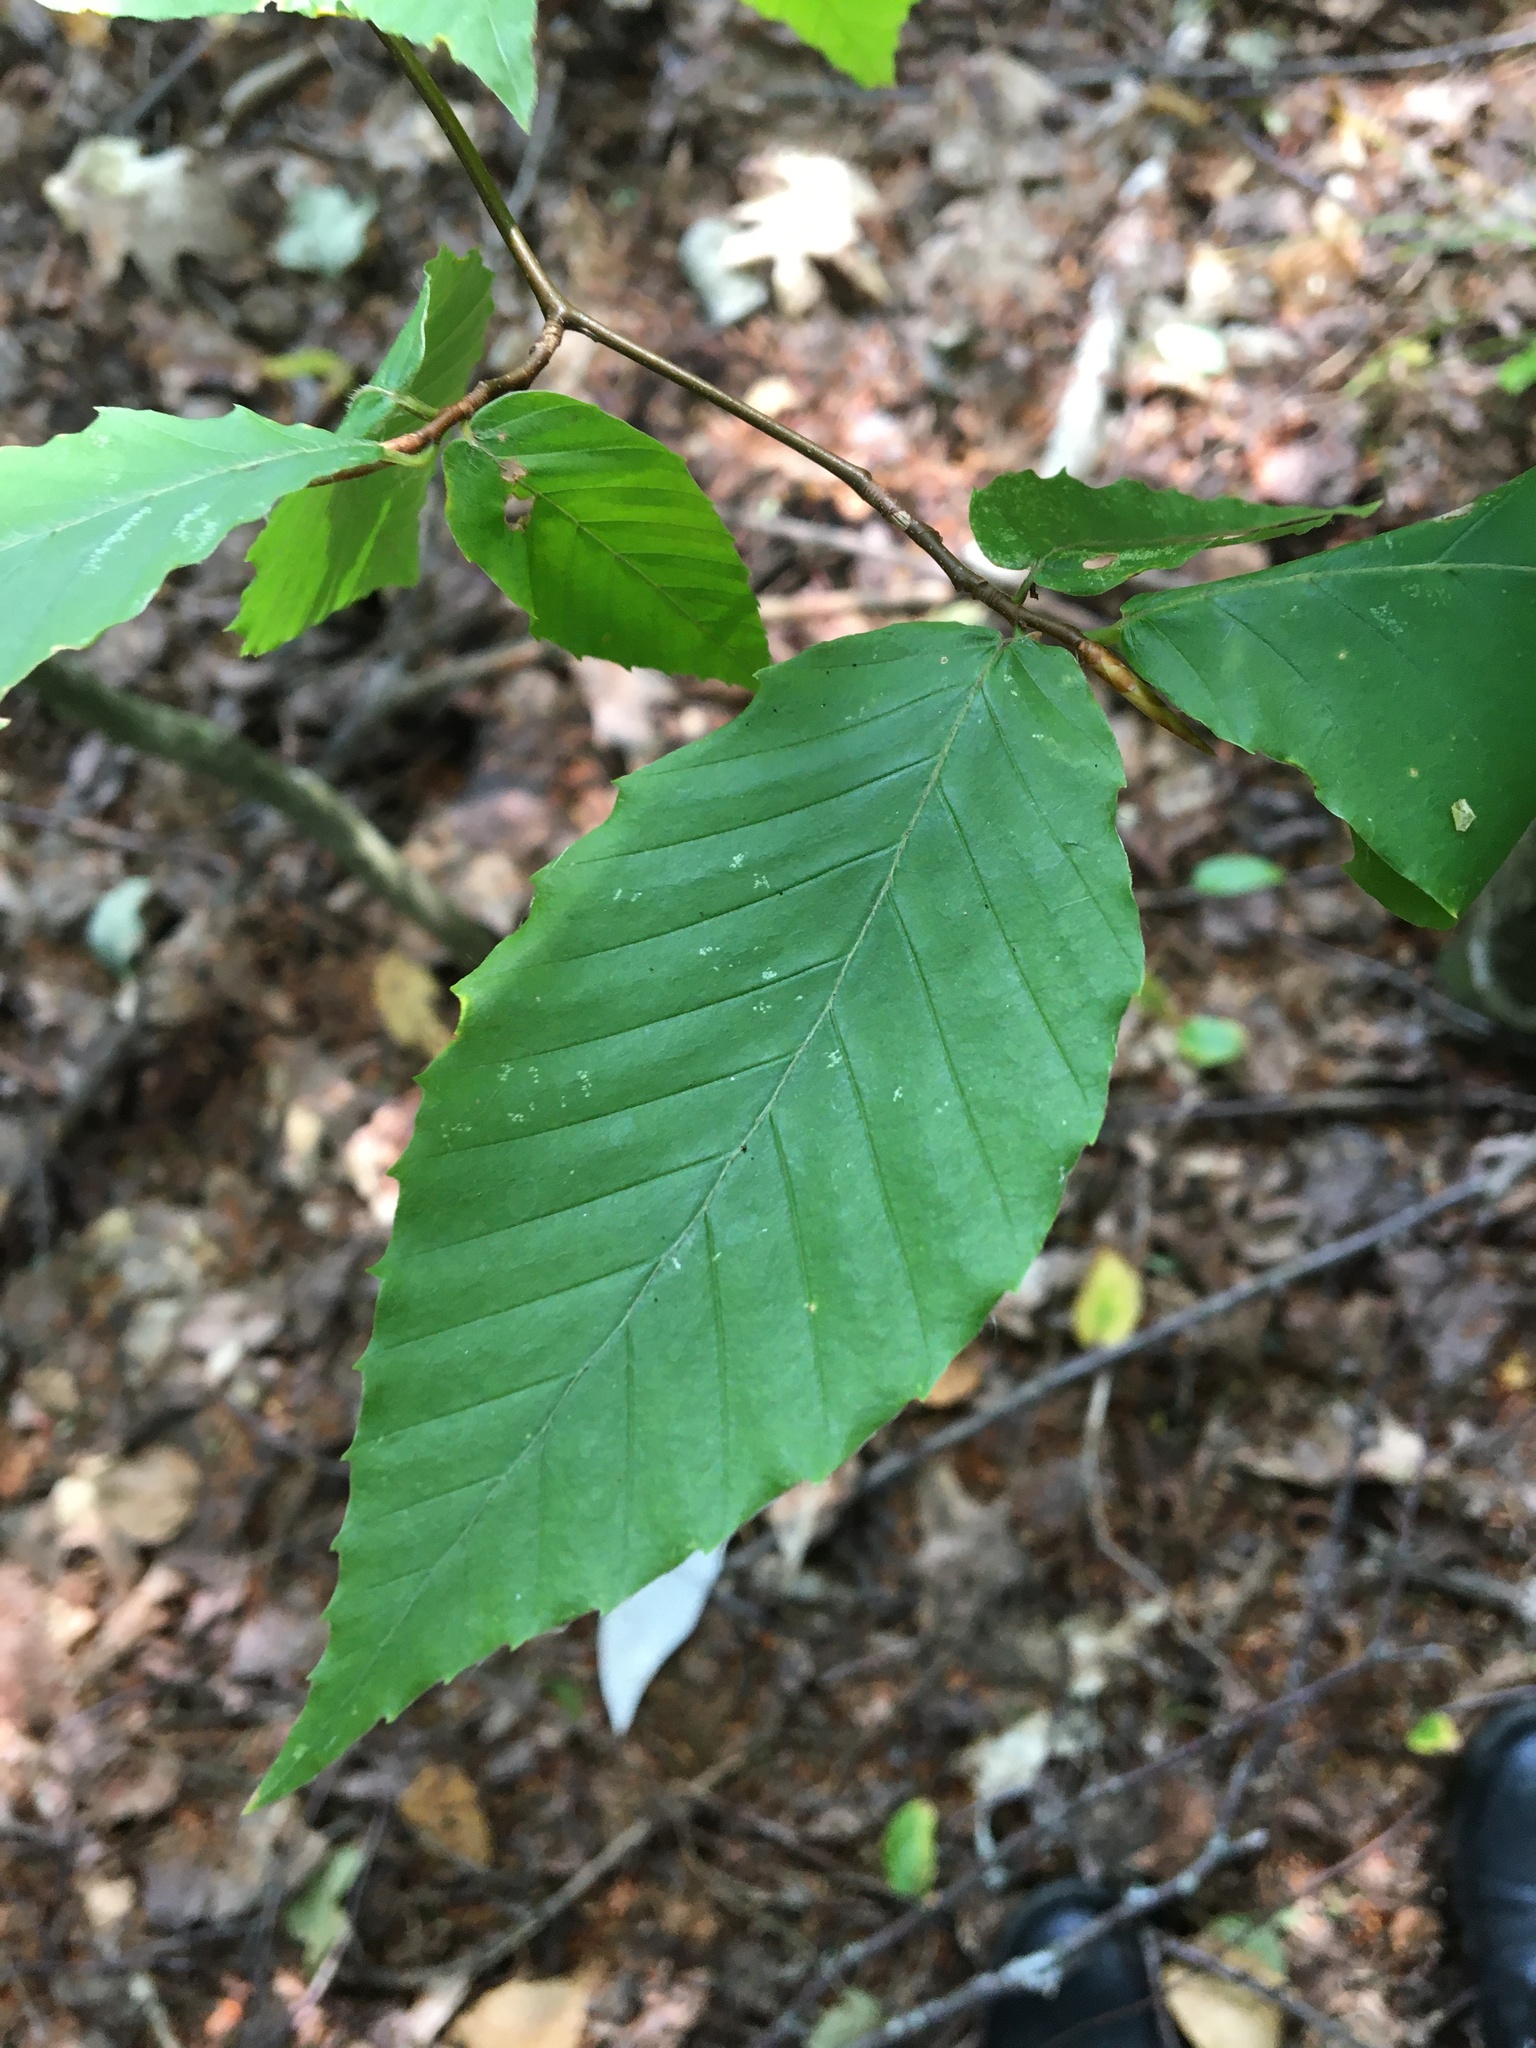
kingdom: Plantae
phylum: Tracheophyta
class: Magnoliopsida
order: Fagales
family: Fagaceae
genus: Fagus
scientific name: Fagus grandifolia
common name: American beech
